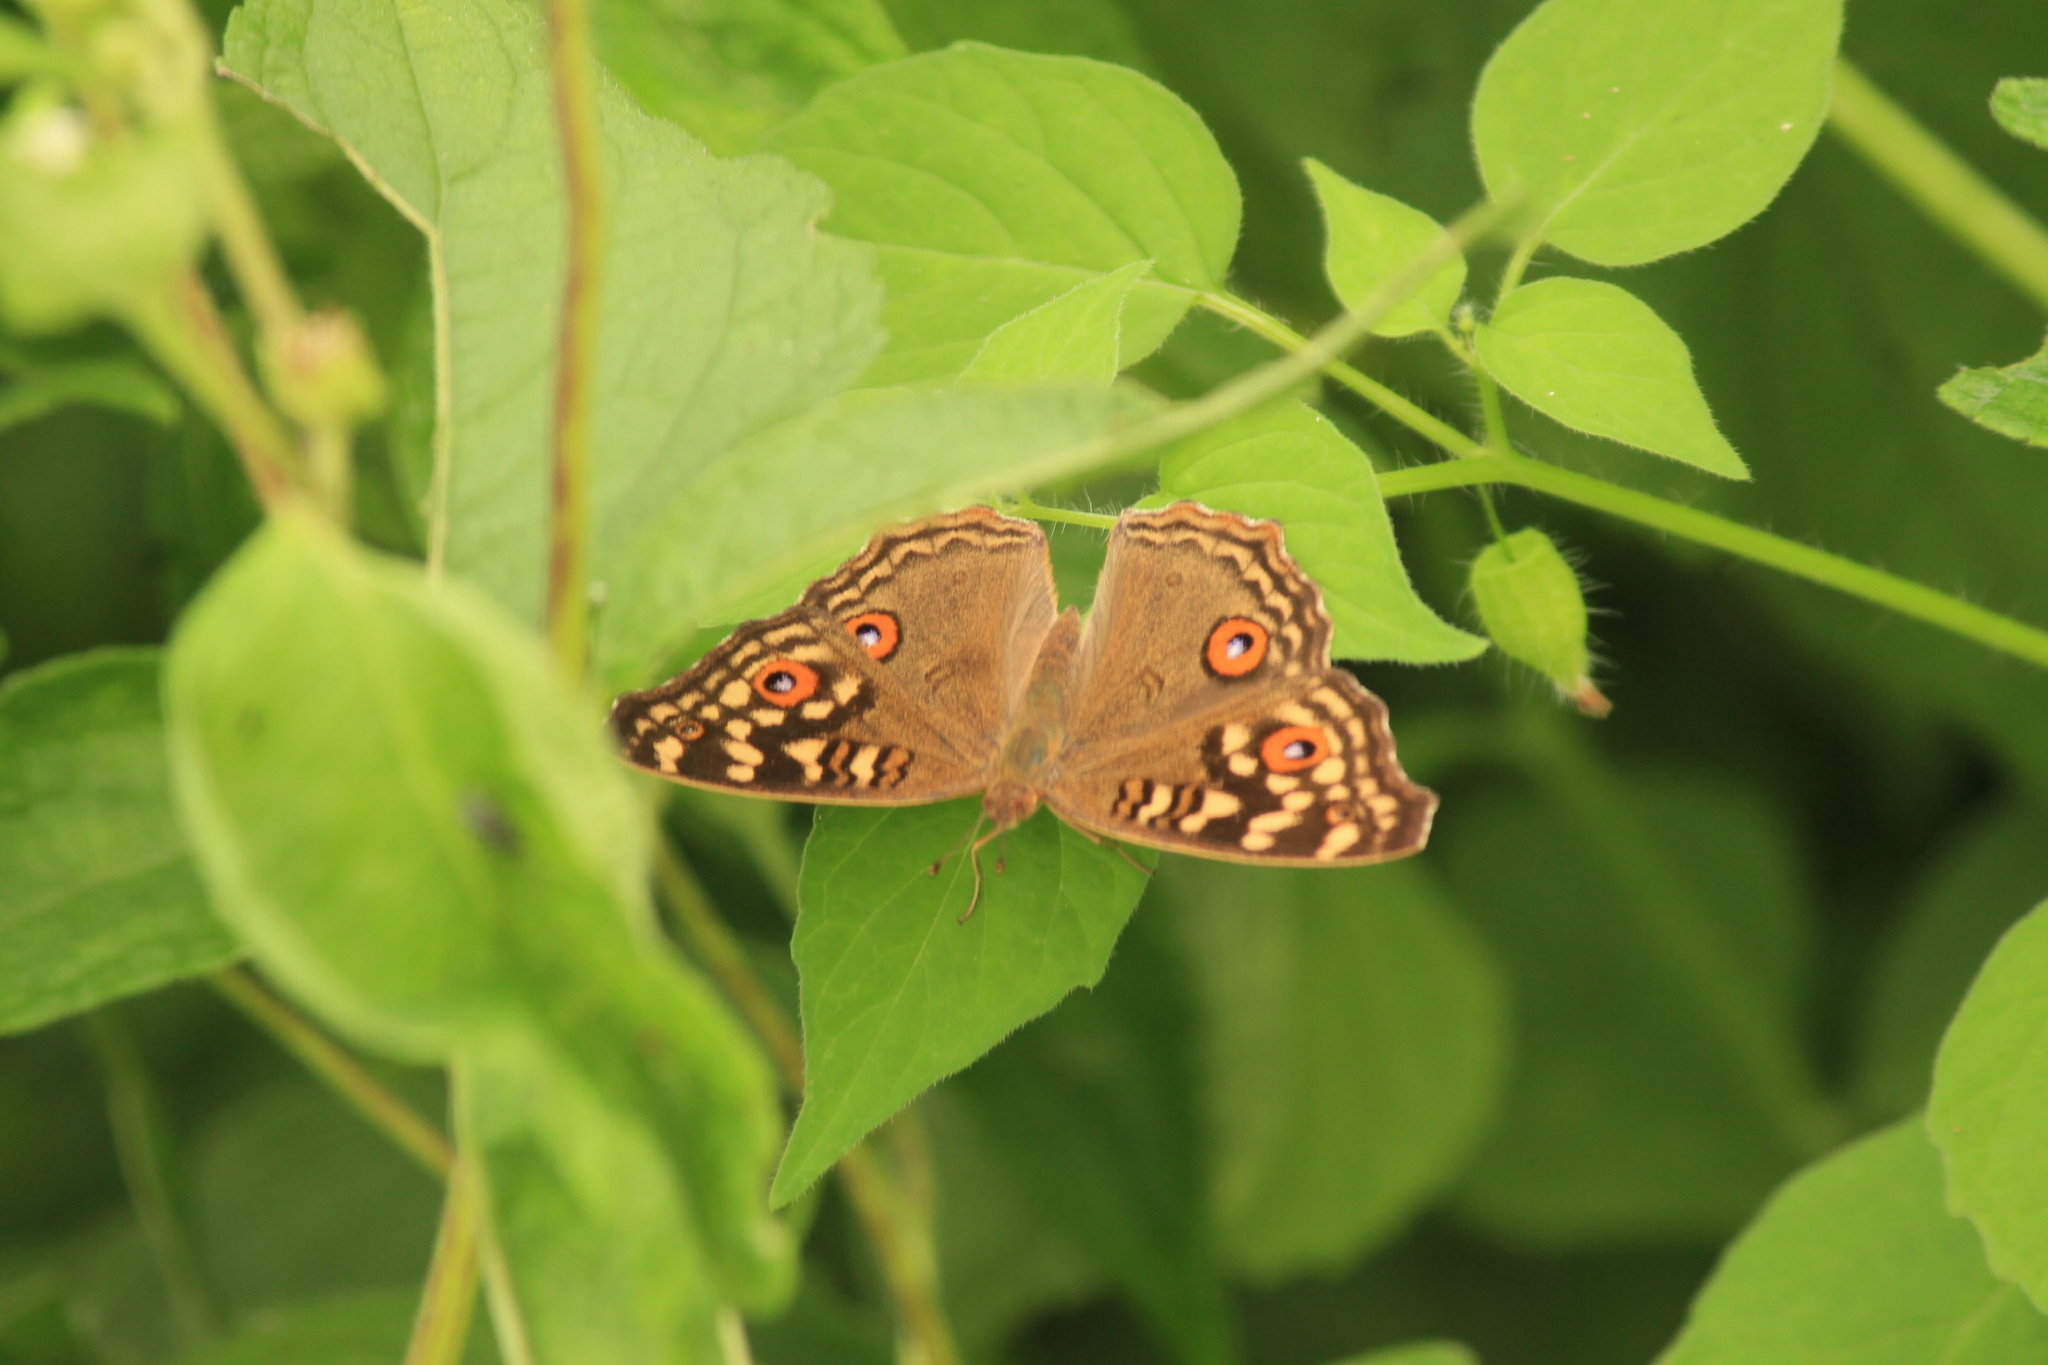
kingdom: Animalia
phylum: Arthropoda
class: Insecta
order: Lepidoptera
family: Nymphalidae
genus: Junonia
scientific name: Junonia lemonias
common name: Lemon pansy
